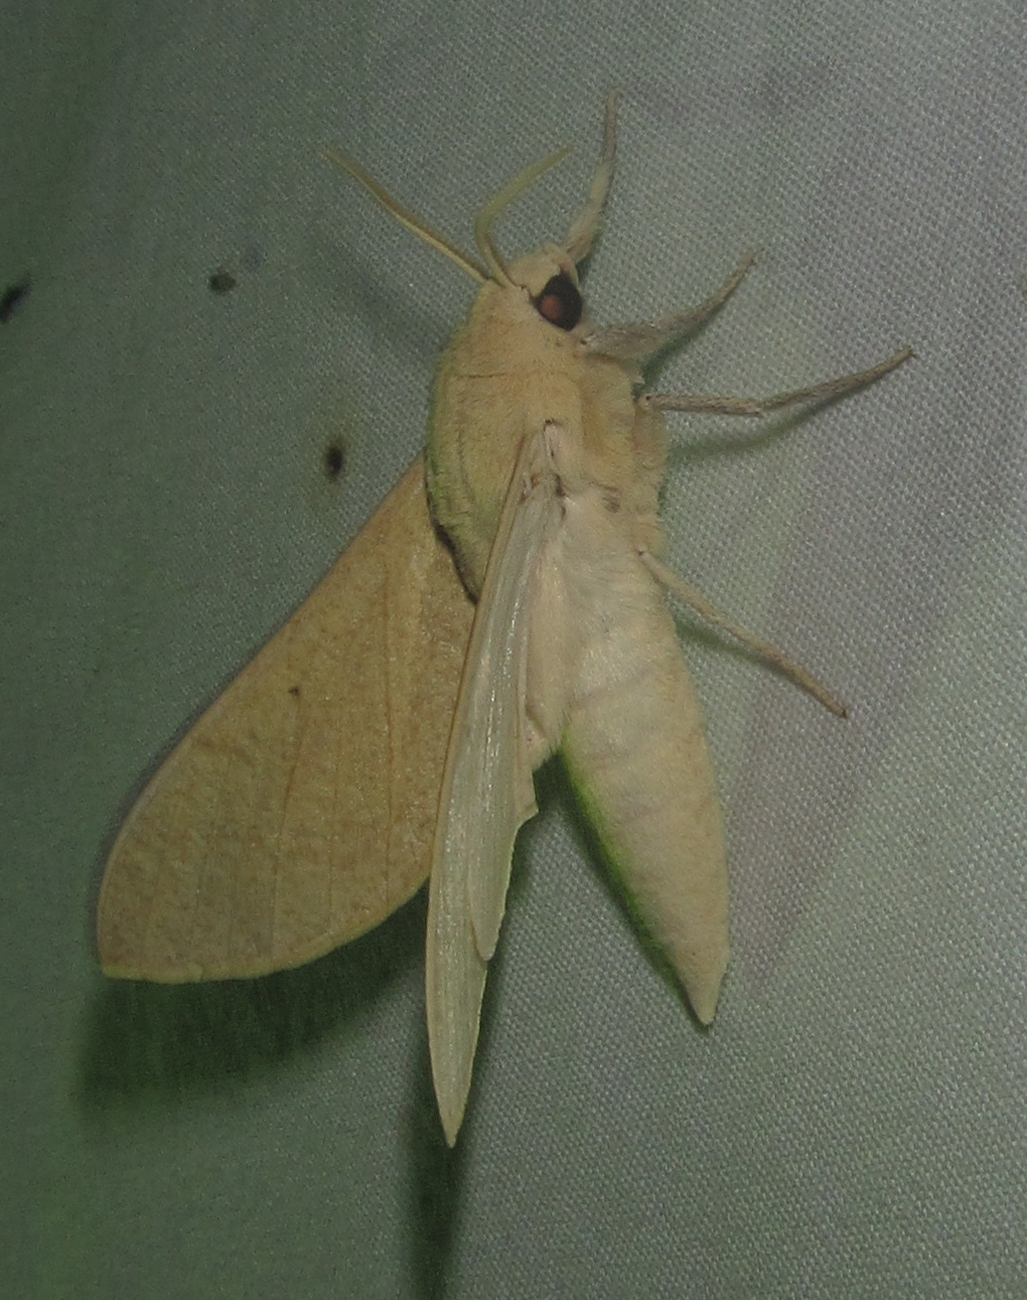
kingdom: Animalia
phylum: Arthropoda
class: Insecta
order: Lepidoptera
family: Sphingidae
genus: Neoclanis
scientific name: Neoclanis basalis
